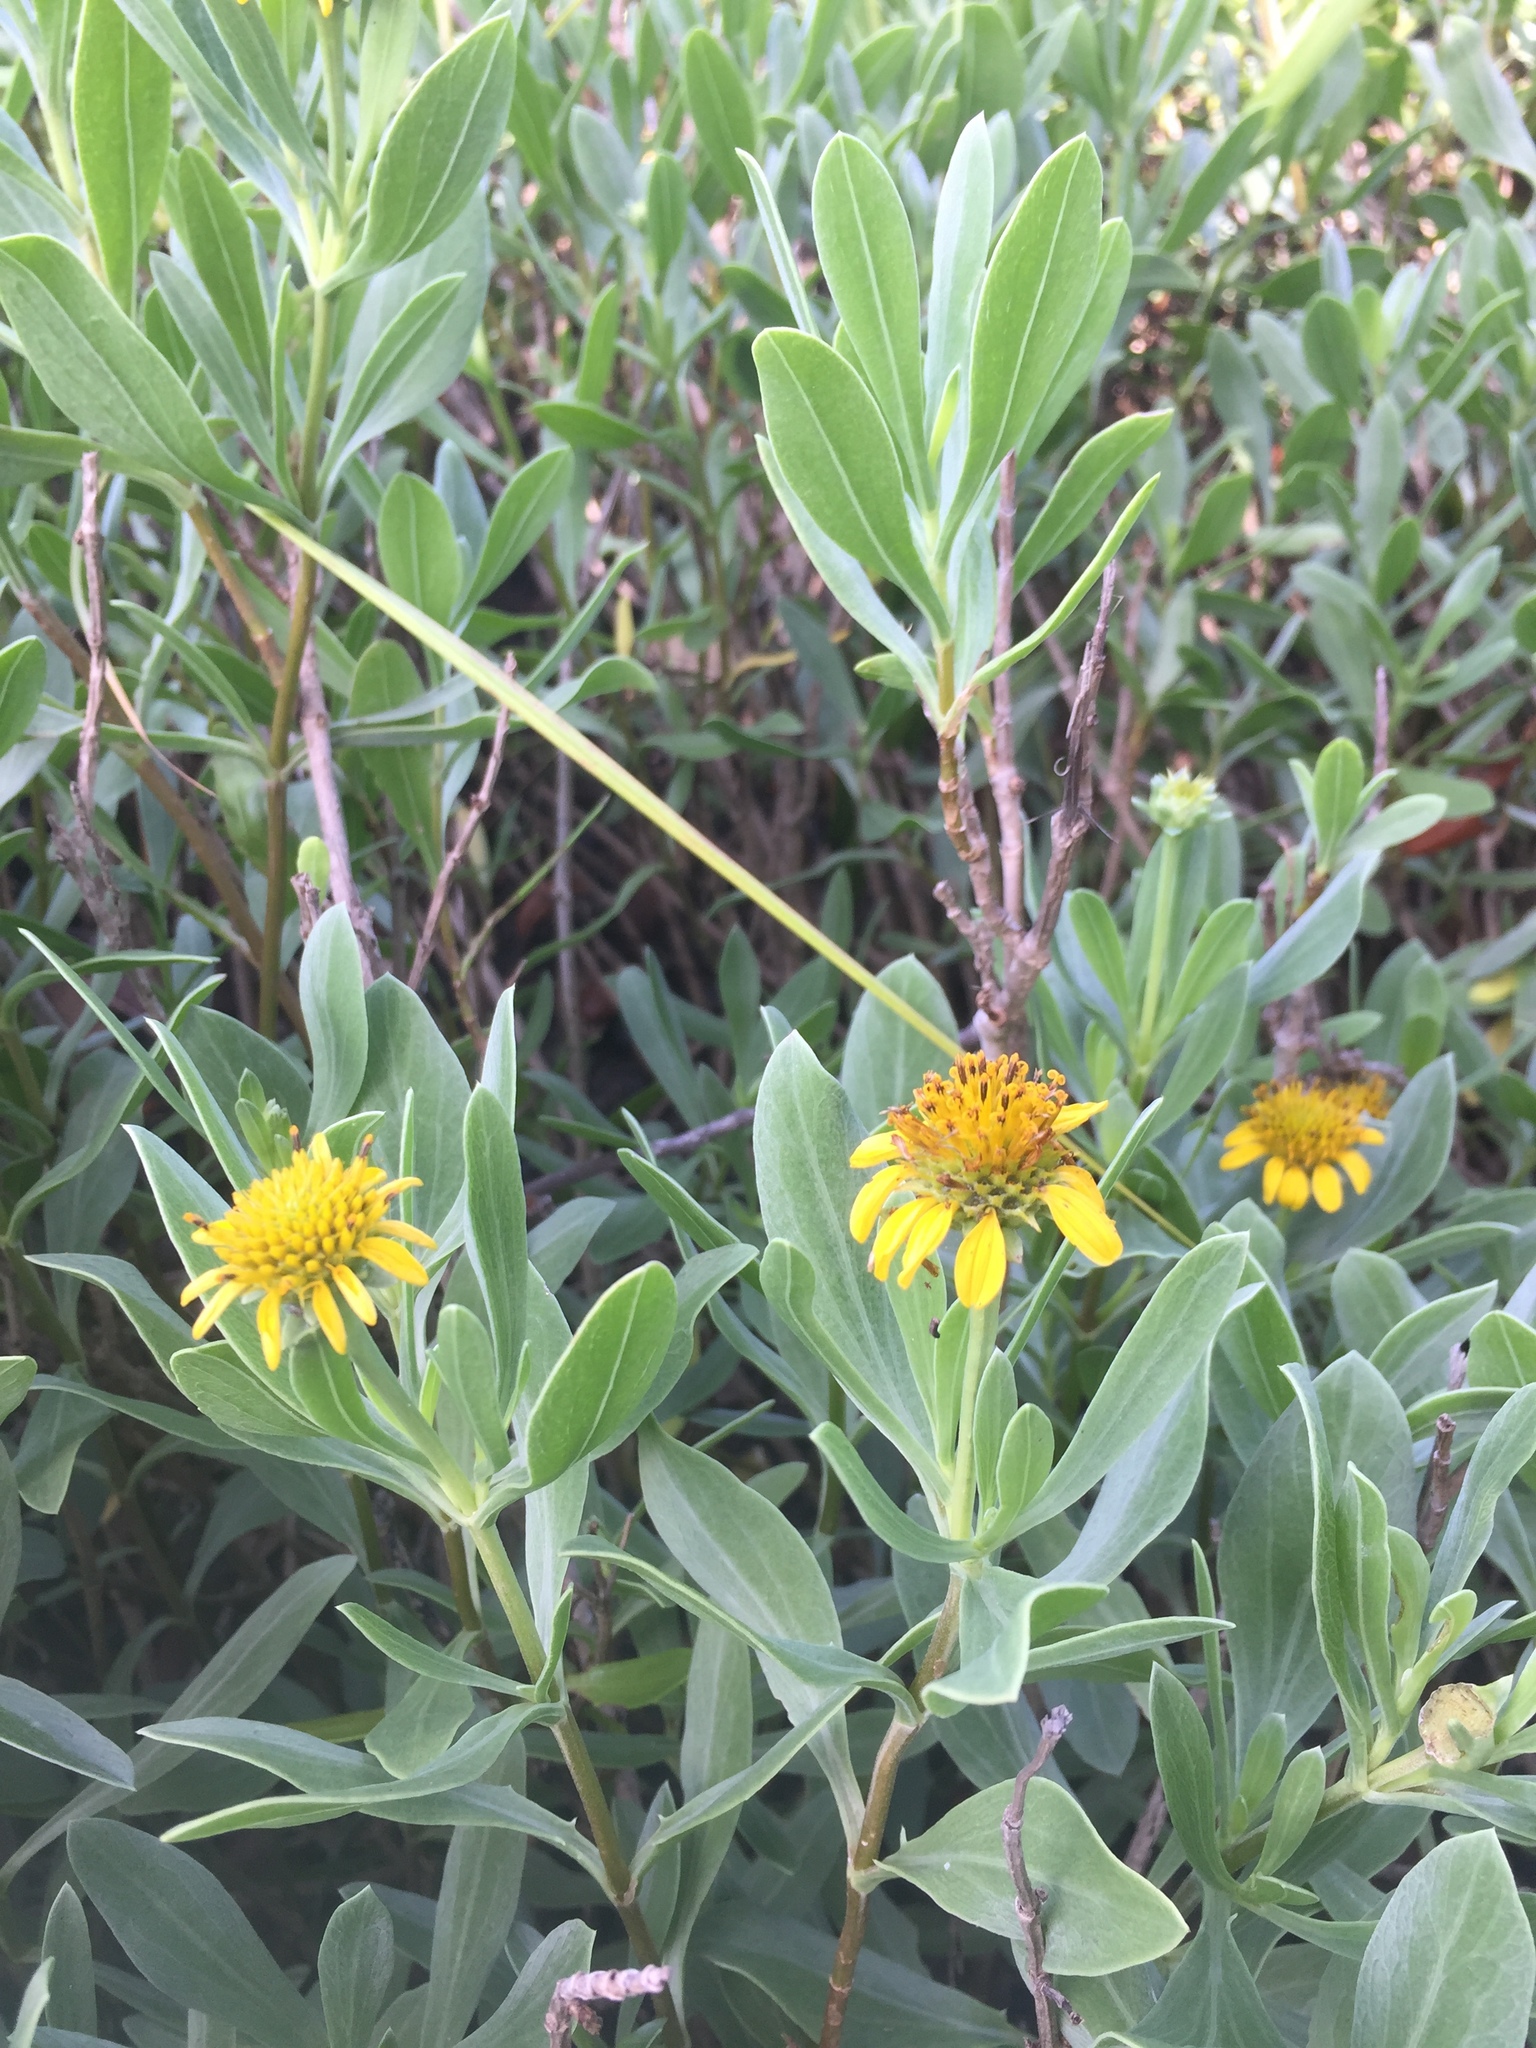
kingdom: Plantae
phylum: Tracheophyta
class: Magnoliopsida
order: Asterales
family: Asteraceae
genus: Borrichia
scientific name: Borrichia frutescens
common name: Sea oxeye
